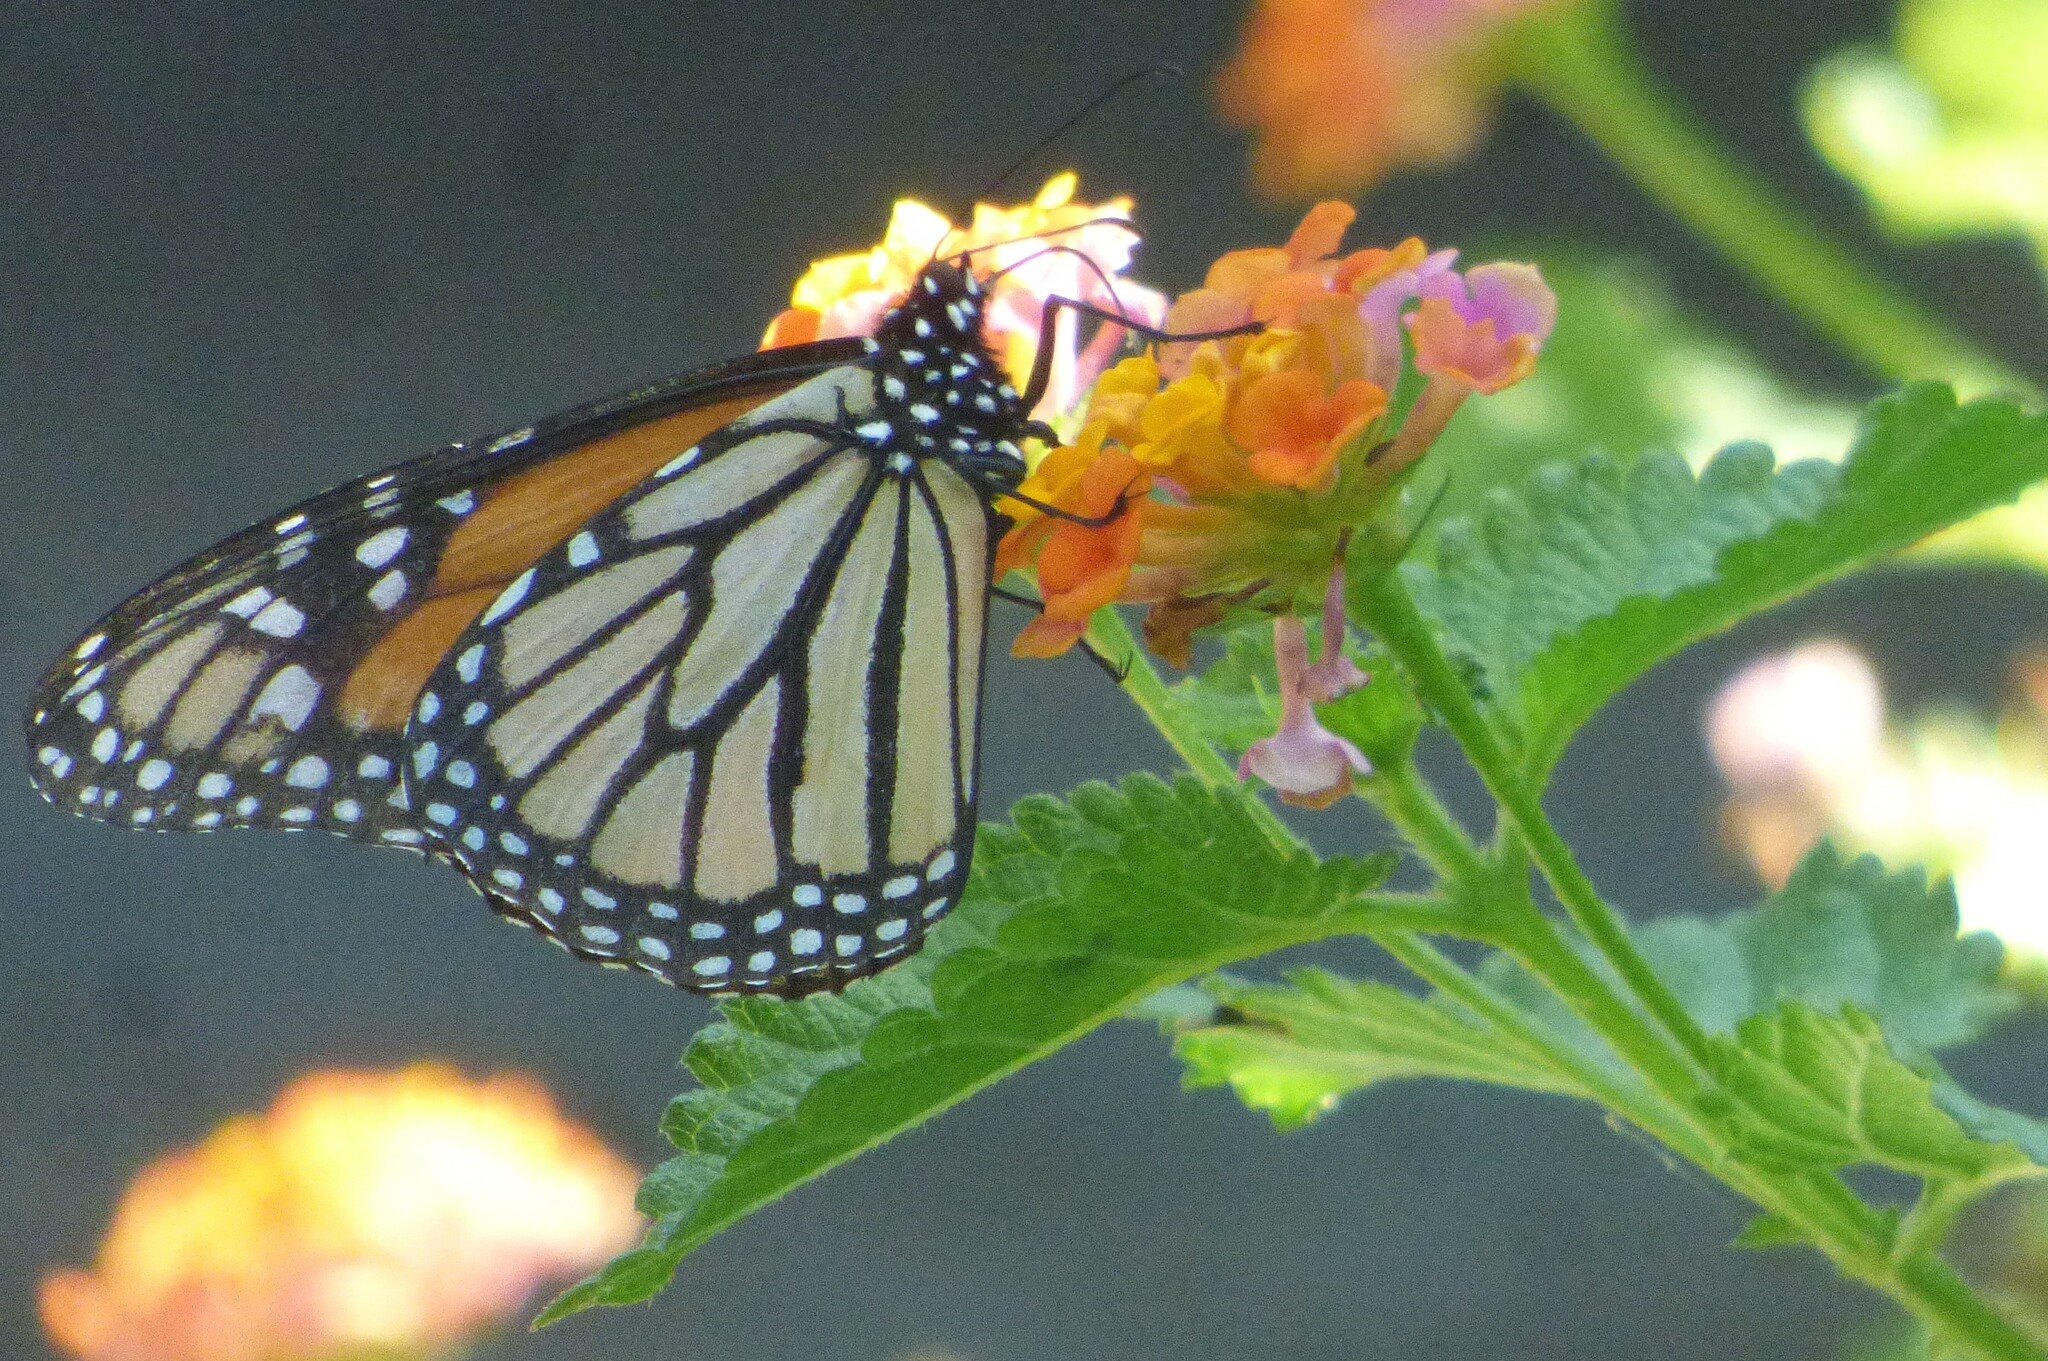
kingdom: Animalia
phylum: Arthropoda
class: Insecta
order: Lepidoptera
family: Nymphalidae
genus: Danaus
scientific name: Danaus plexippus
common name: Monarch
